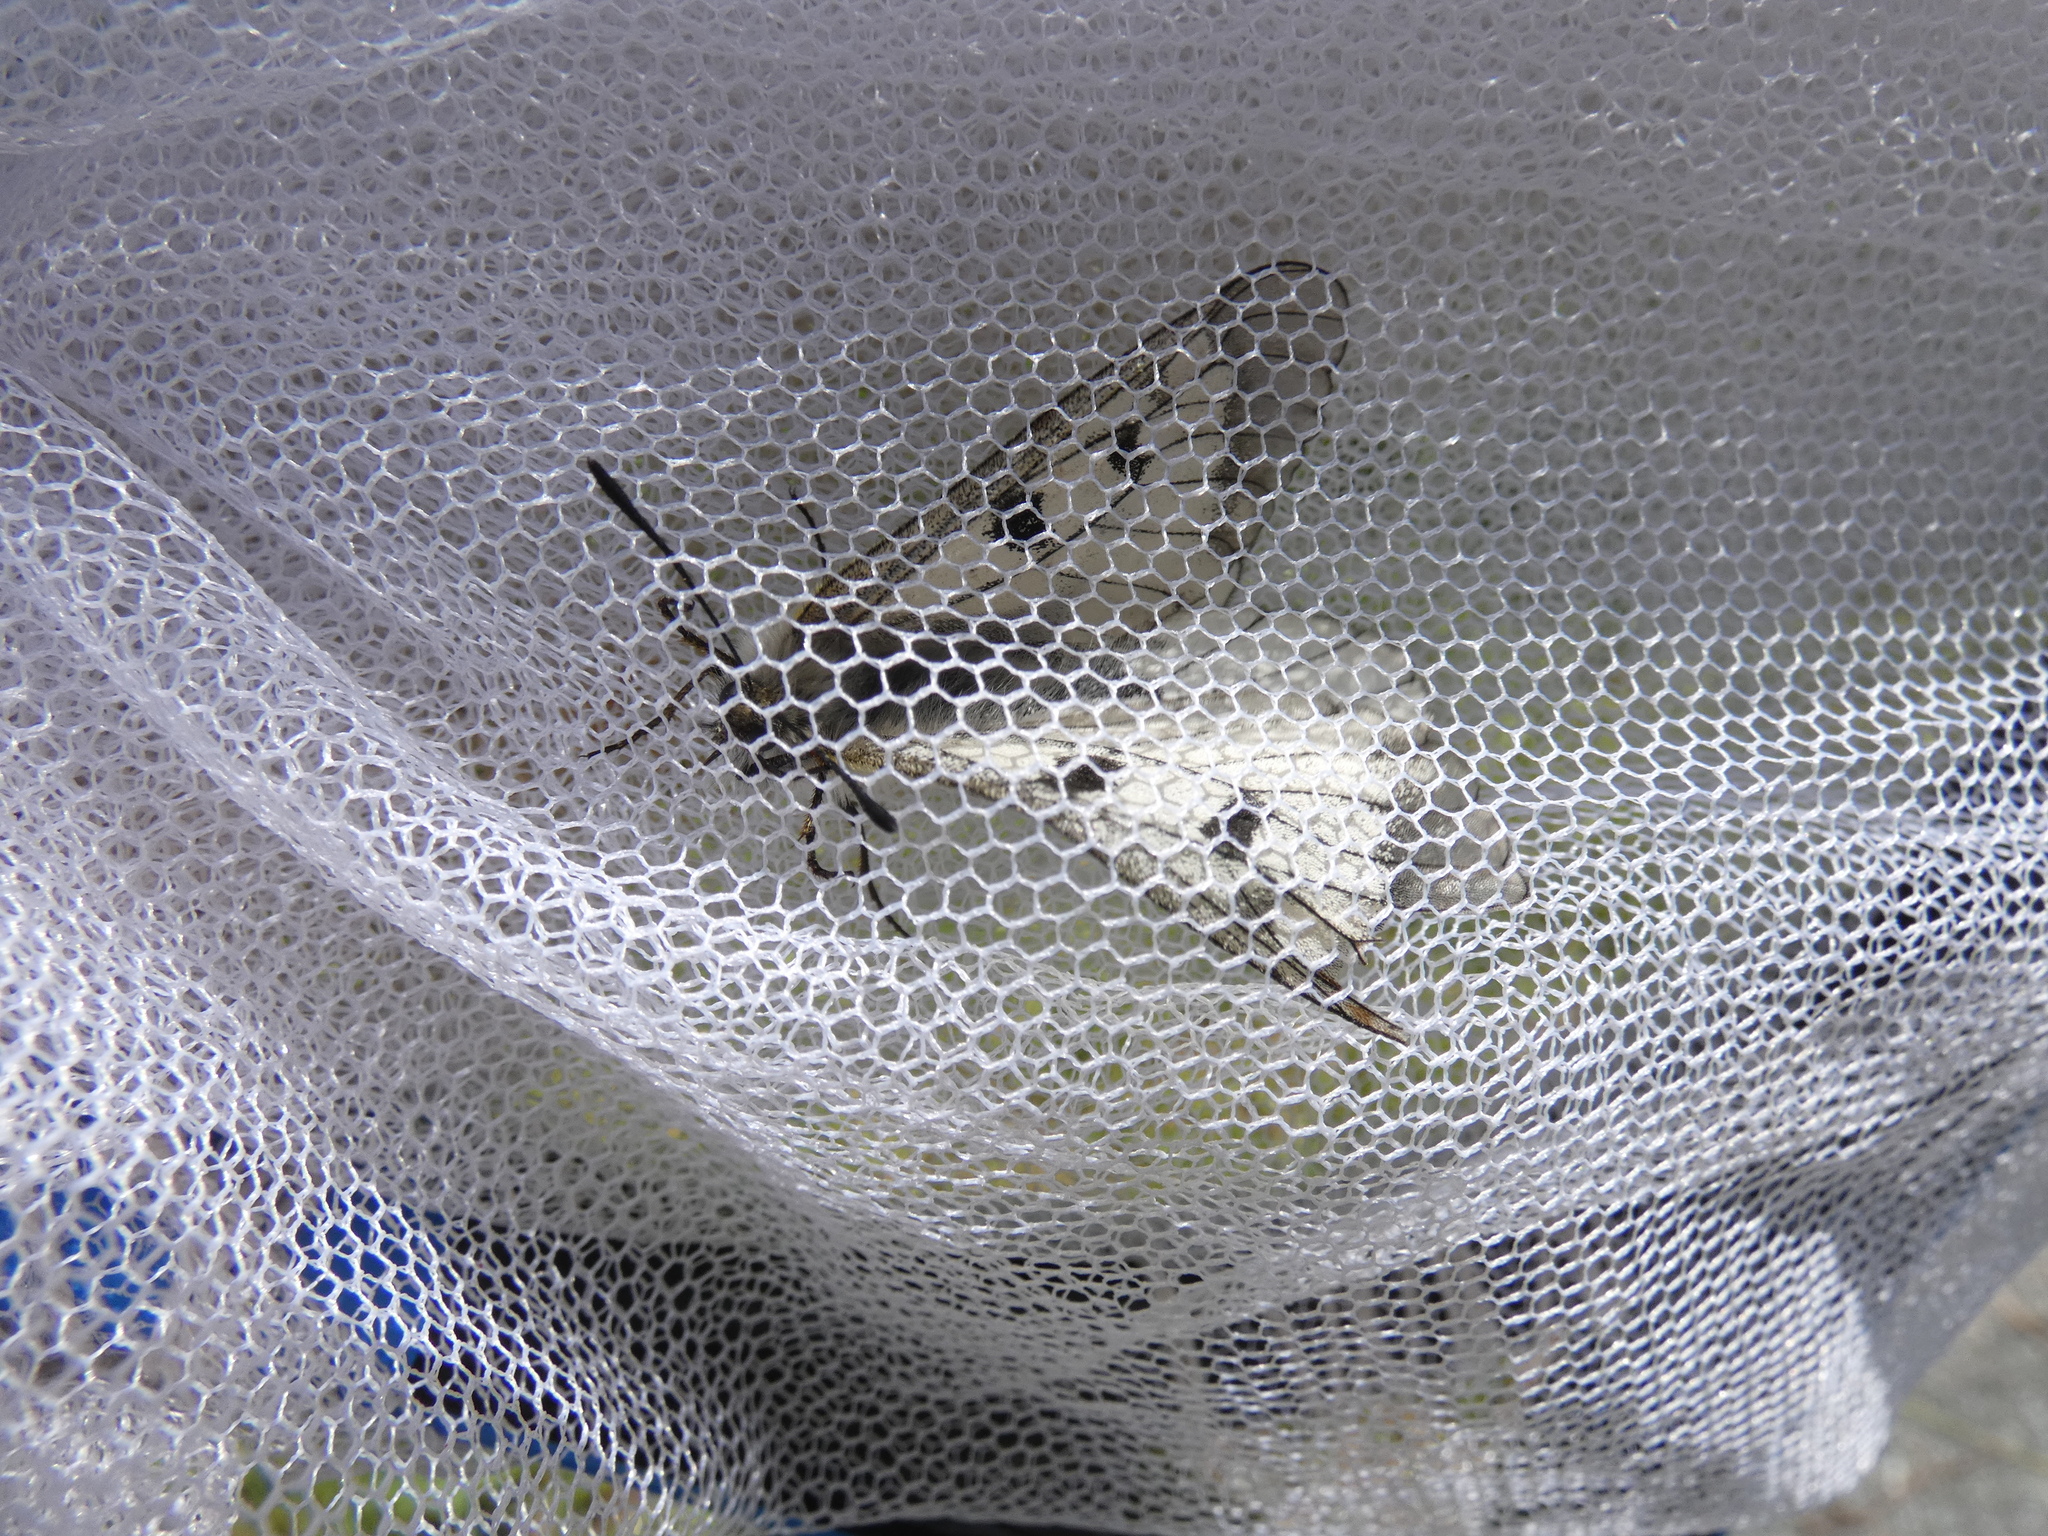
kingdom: Animalia
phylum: Arthropoda
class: Insecta
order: Lepidoptera
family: Papilionidae
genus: Parnassius
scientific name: Parnassius mnemosyne
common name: Clouded apollo
